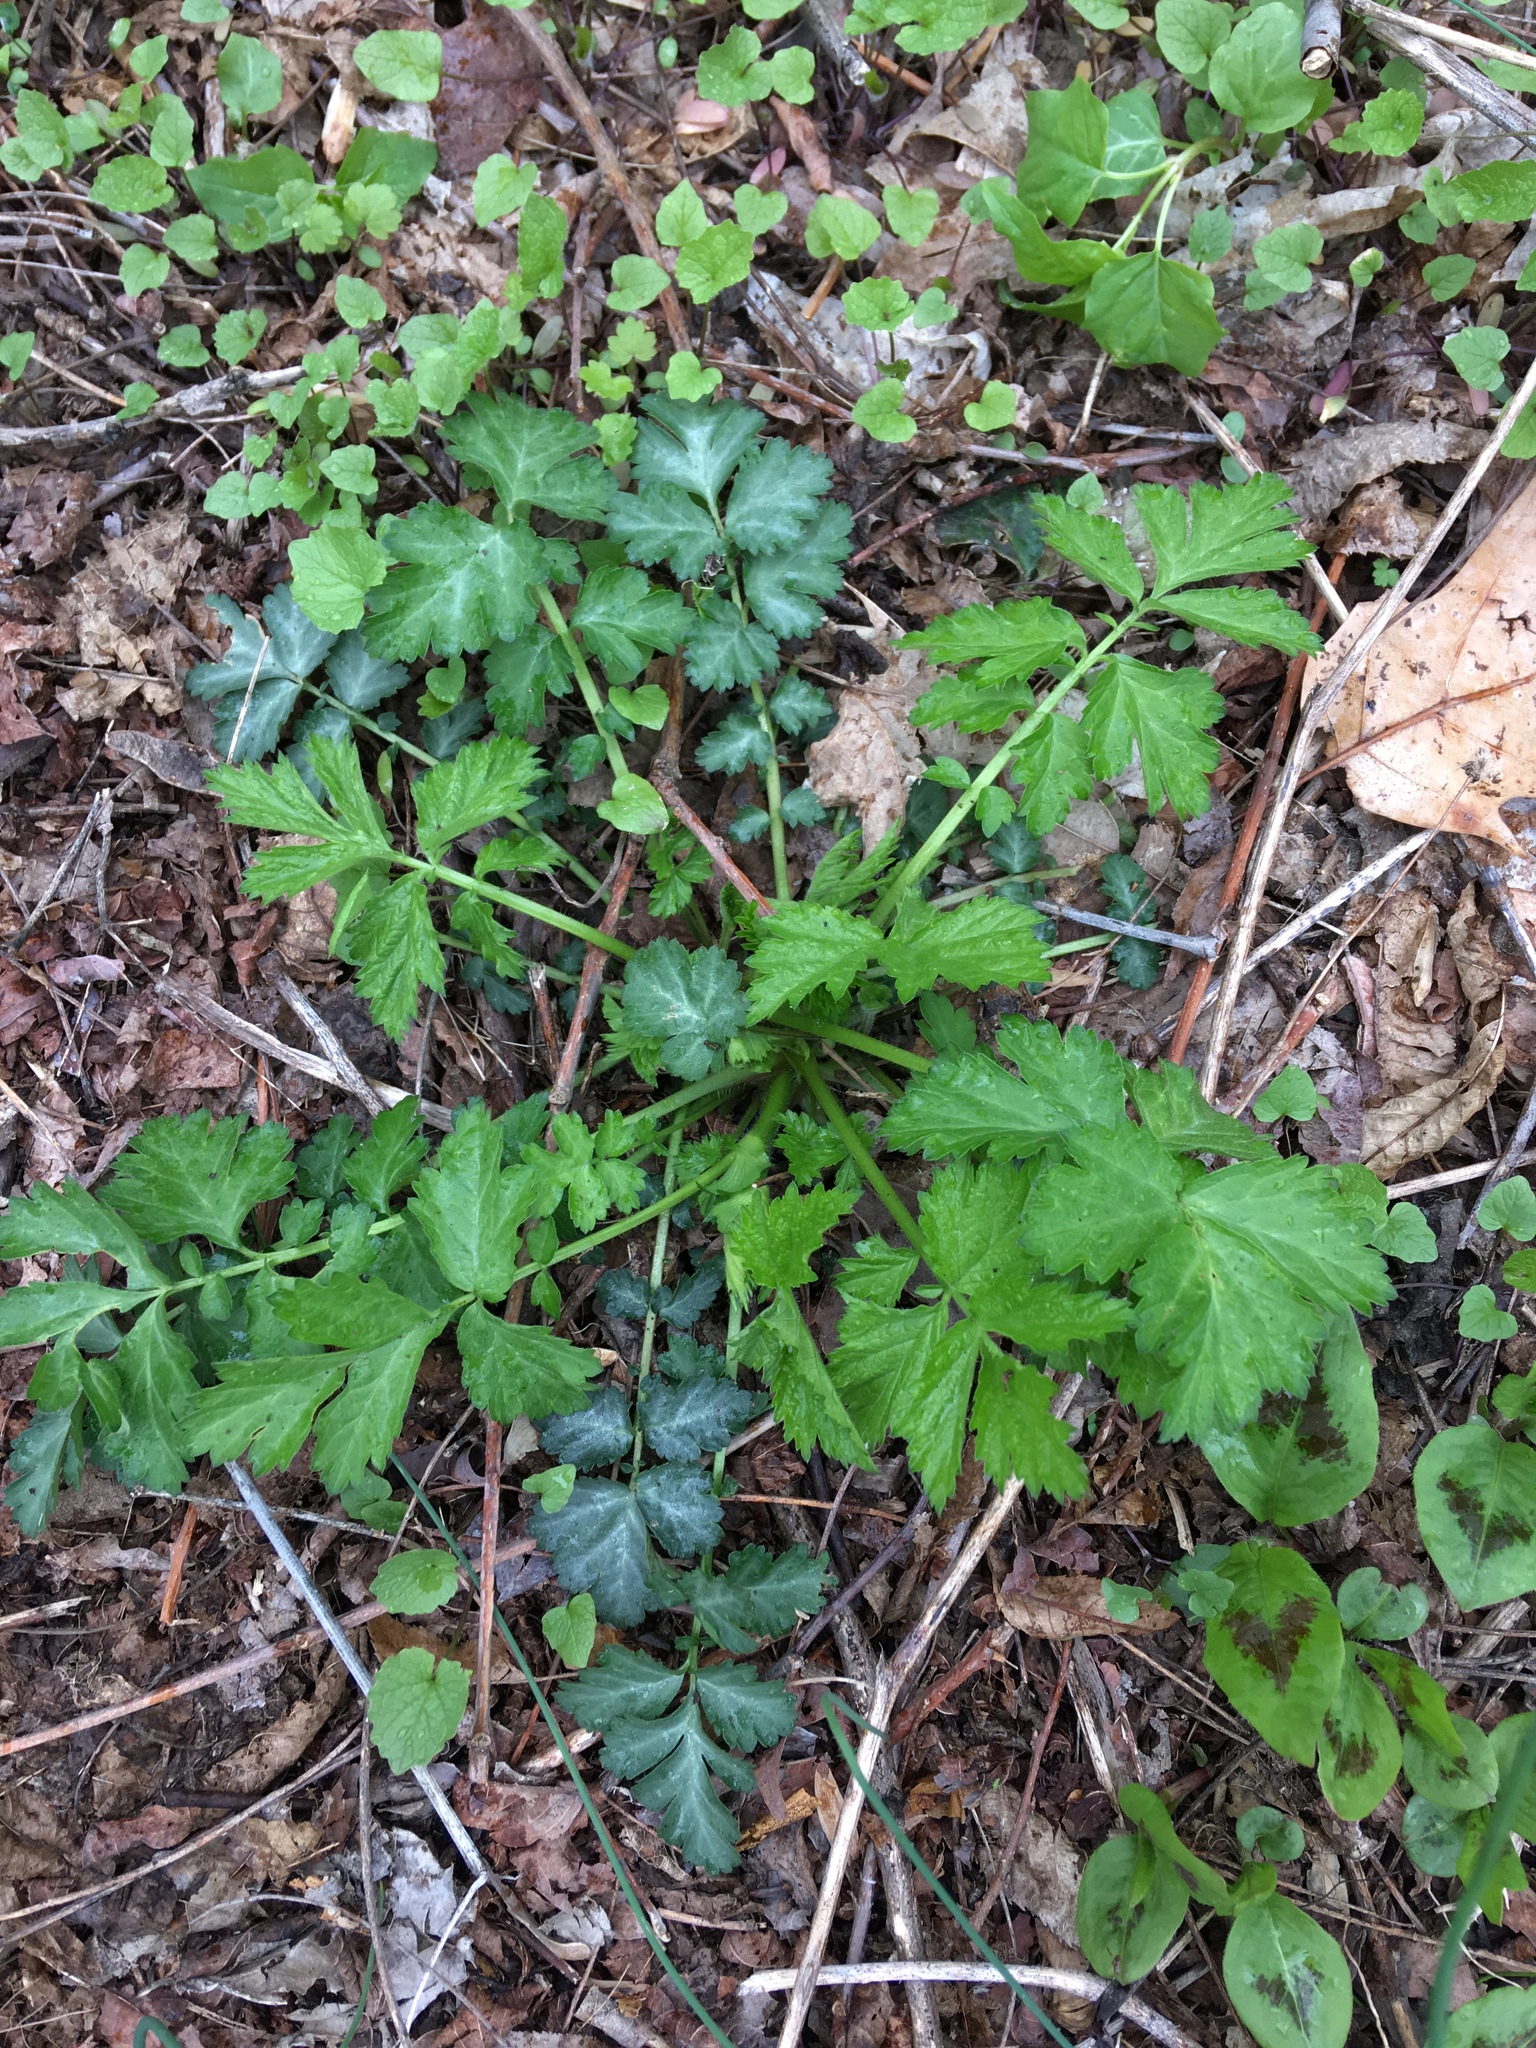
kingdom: Plantae
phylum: Tracheophyta
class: Magnoliopsida
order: Rosales
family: Rosaceae
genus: Geum
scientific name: Geum canadense
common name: White avens
